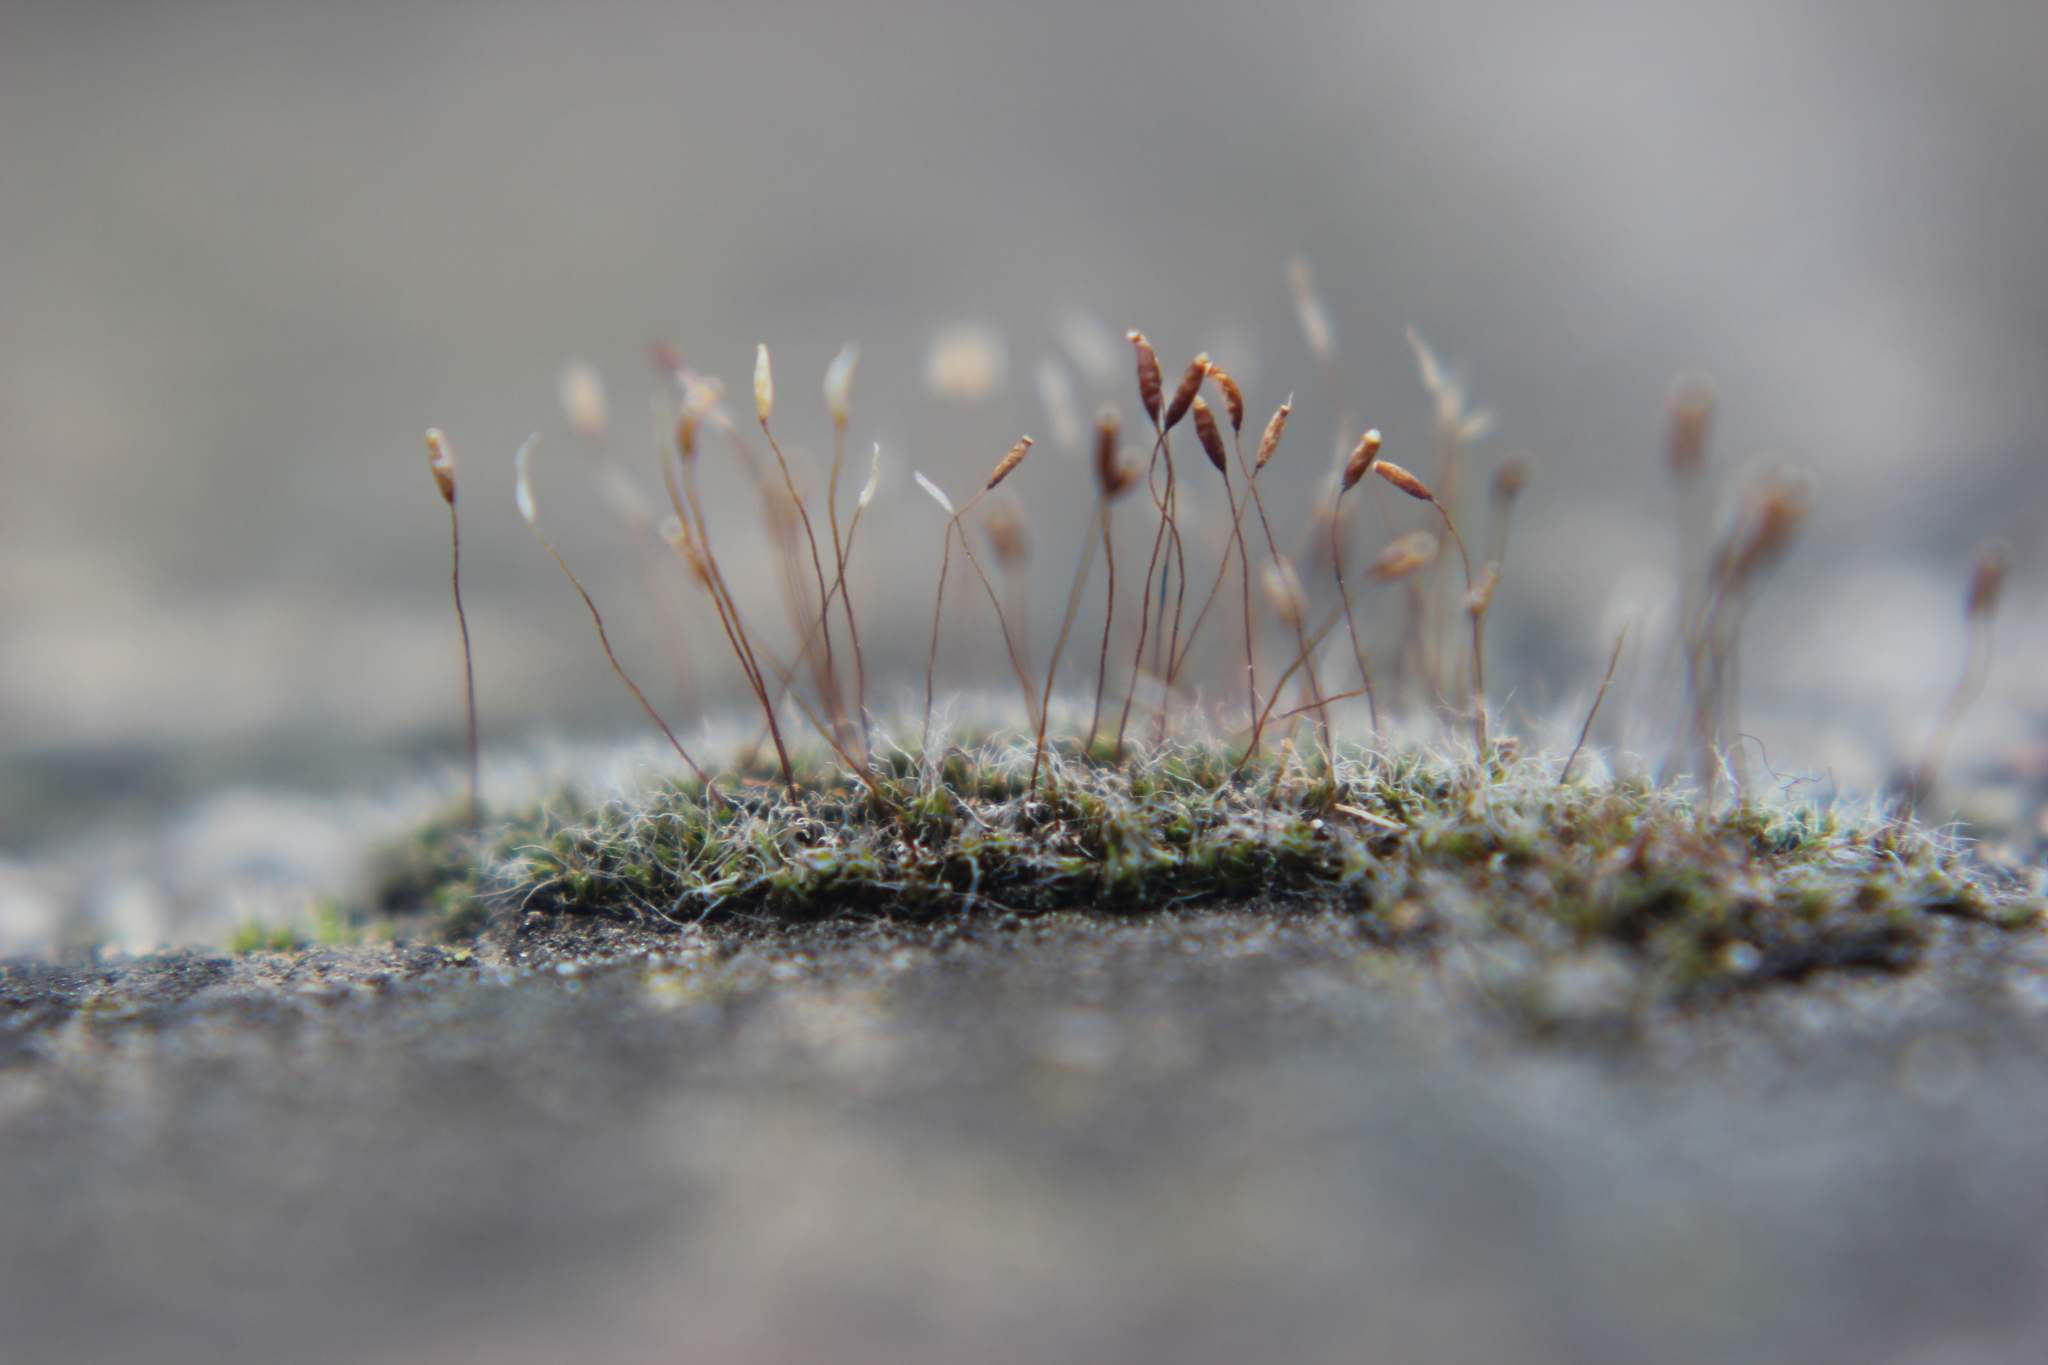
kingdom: Plantae
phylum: Bryophyta
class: Bryopsida
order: Pottiales
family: Pottiaceae
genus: Tortula
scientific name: Tortula muralis
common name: Wall screw-moss
